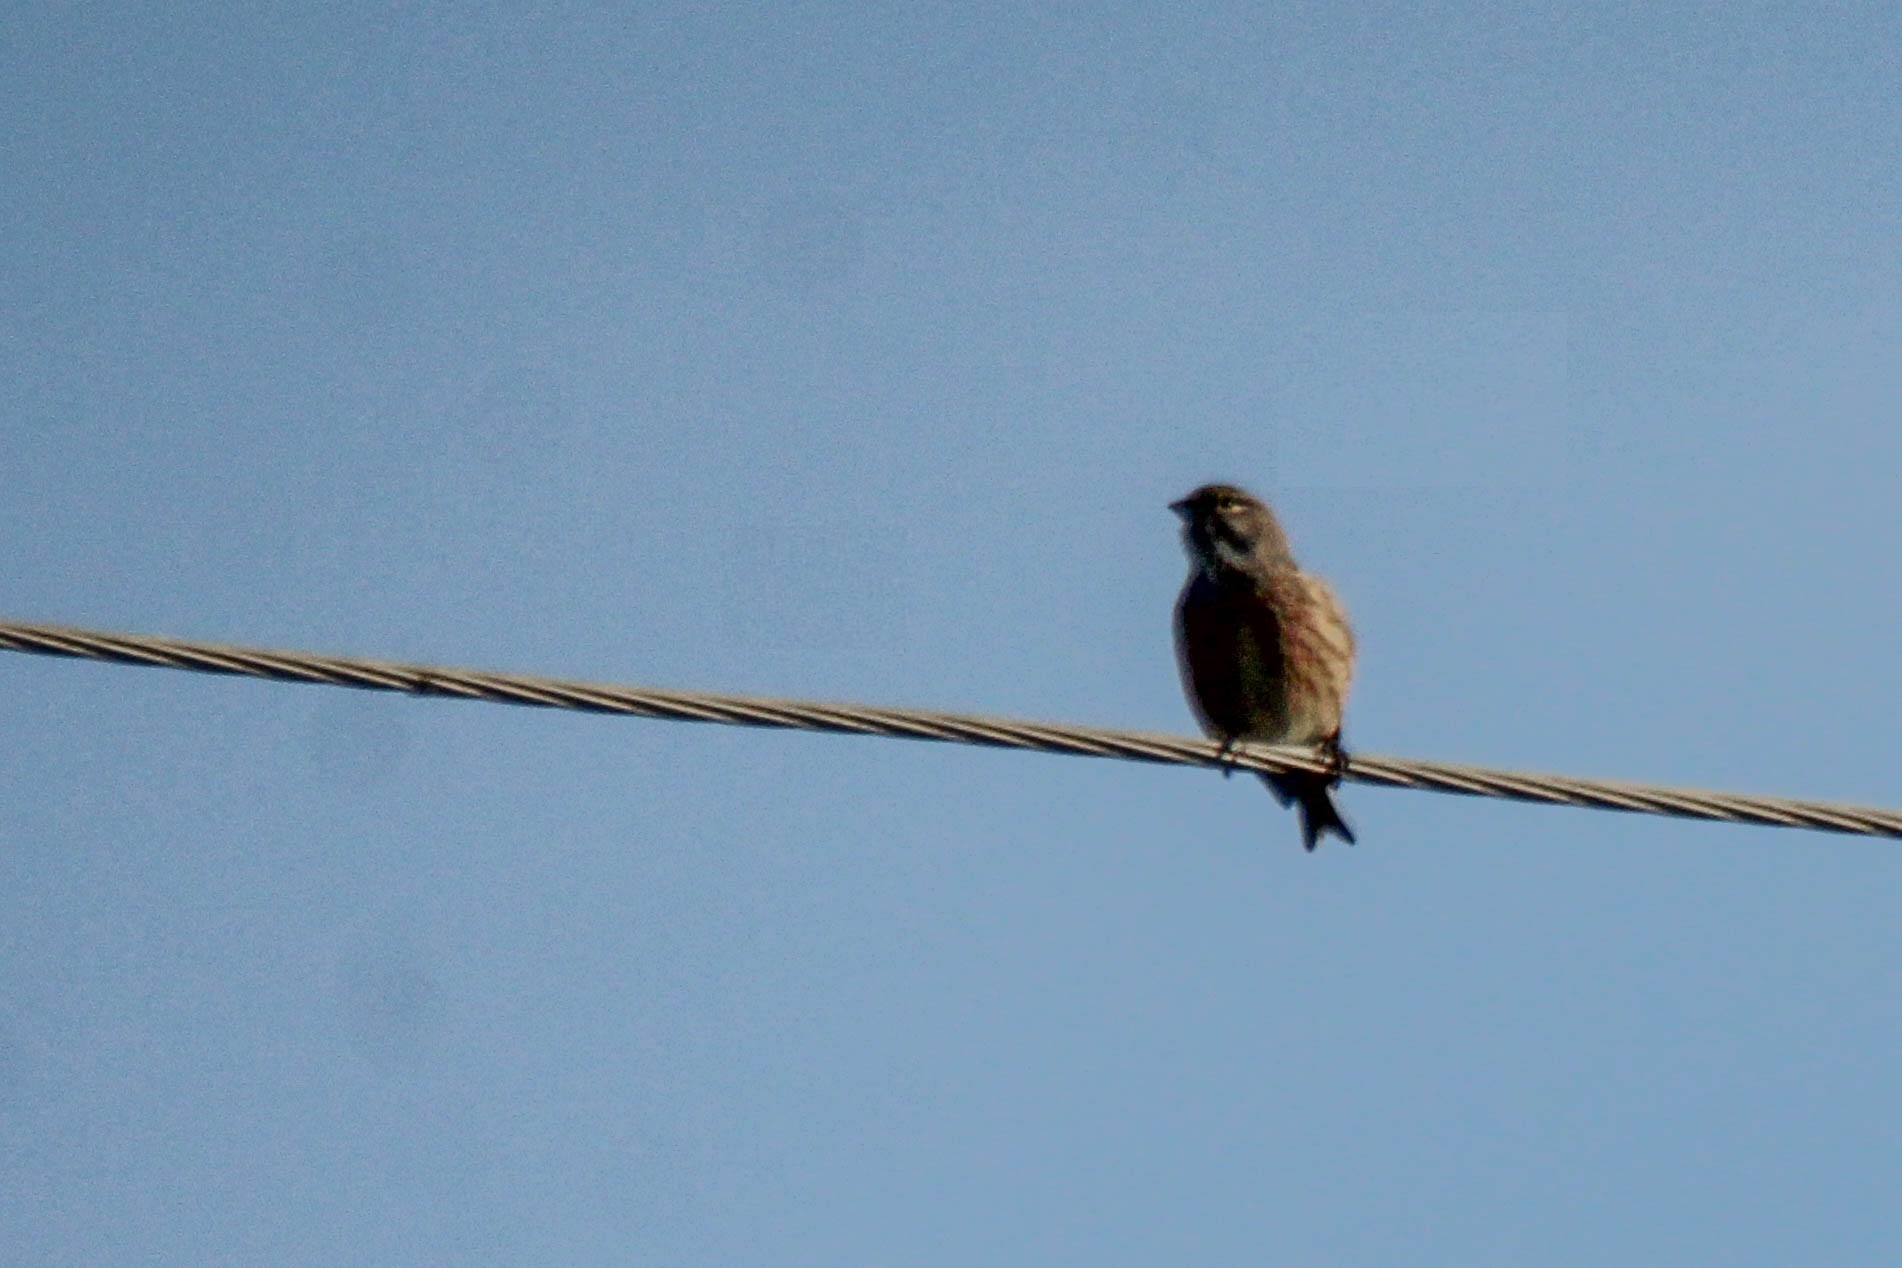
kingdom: Animalia
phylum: Chordata
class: Aves
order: Passeriformes
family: Fringillidae
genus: Linaria
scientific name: Linaria cannabina
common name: Common linnet
